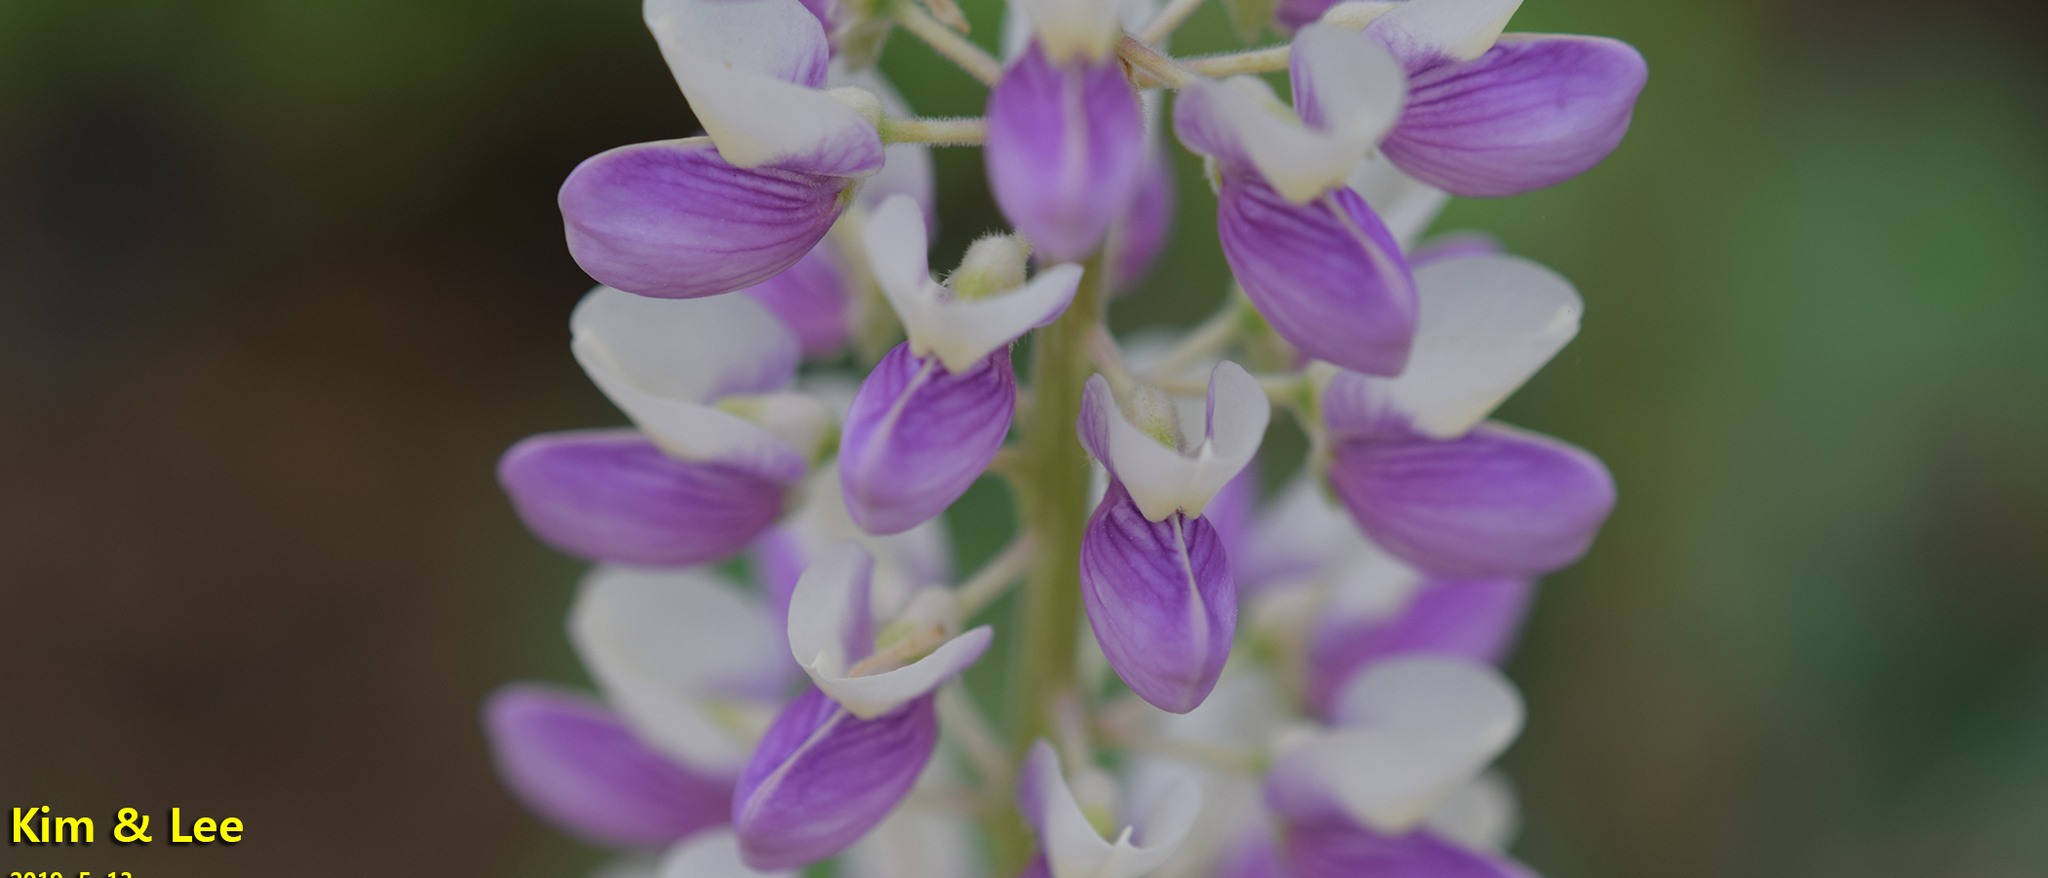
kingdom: Plantae
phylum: Tracheophyta
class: Magnoliopsida
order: Fabales
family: Fabaceae
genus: Lupinus
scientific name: Lupinus polyphyllus
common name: Garden lupin
